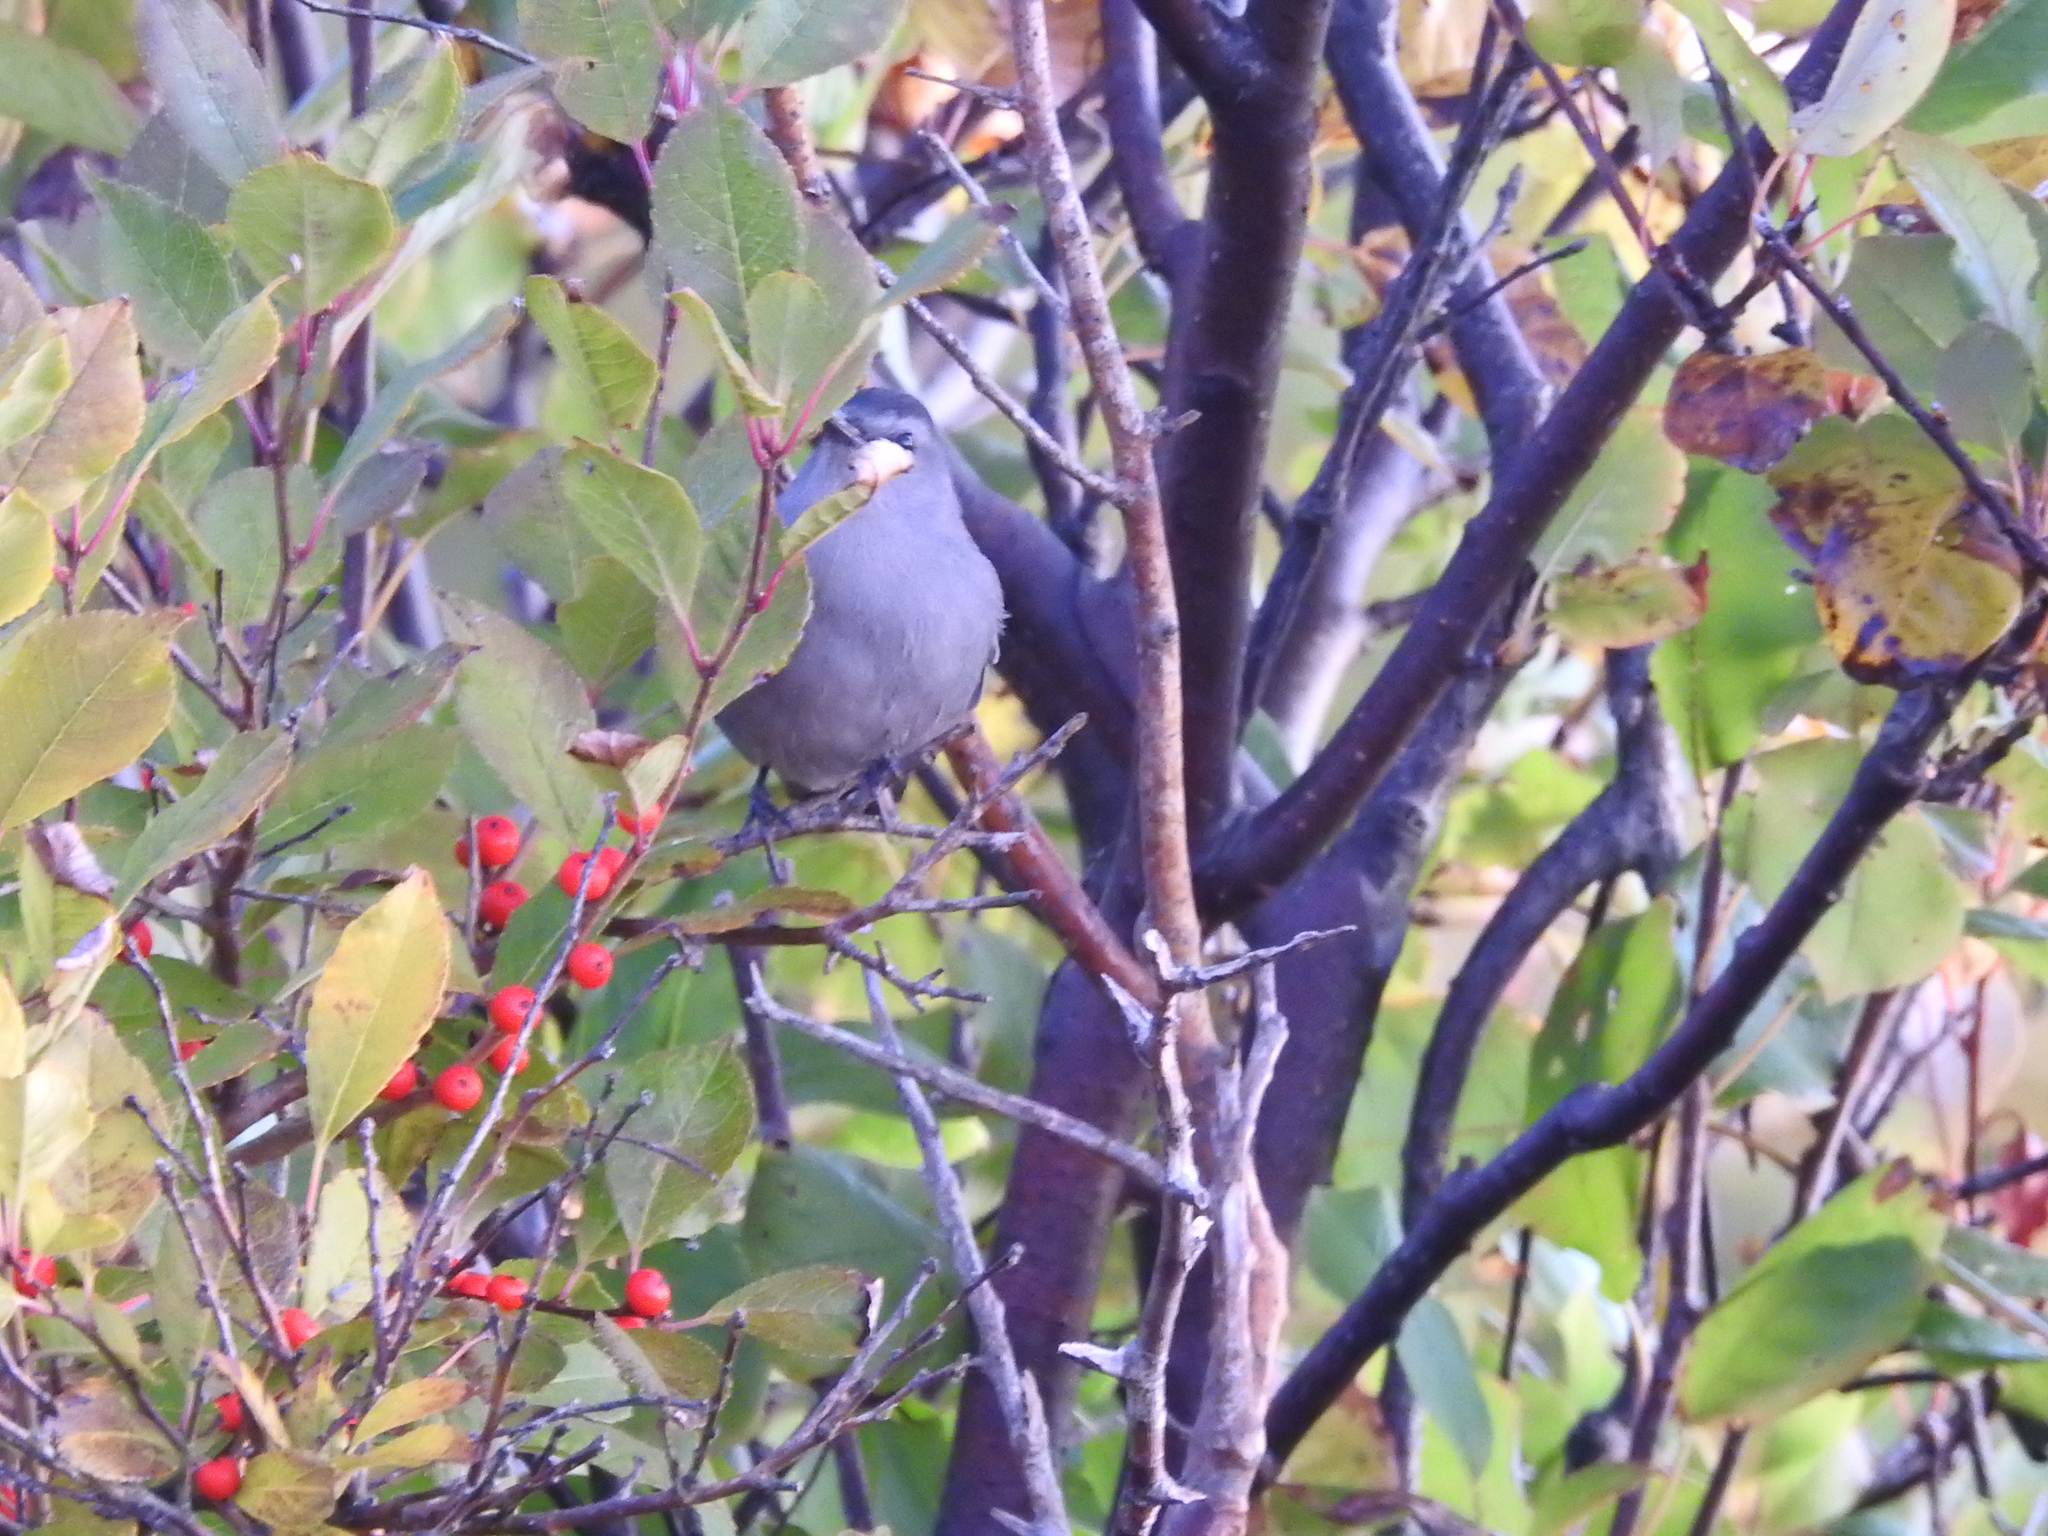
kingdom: Animalia
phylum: Chordata
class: Aves
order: Passeriformes
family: Mimidae
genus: Dumetella
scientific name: Dumetella carolinensis
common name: Gray catbird
